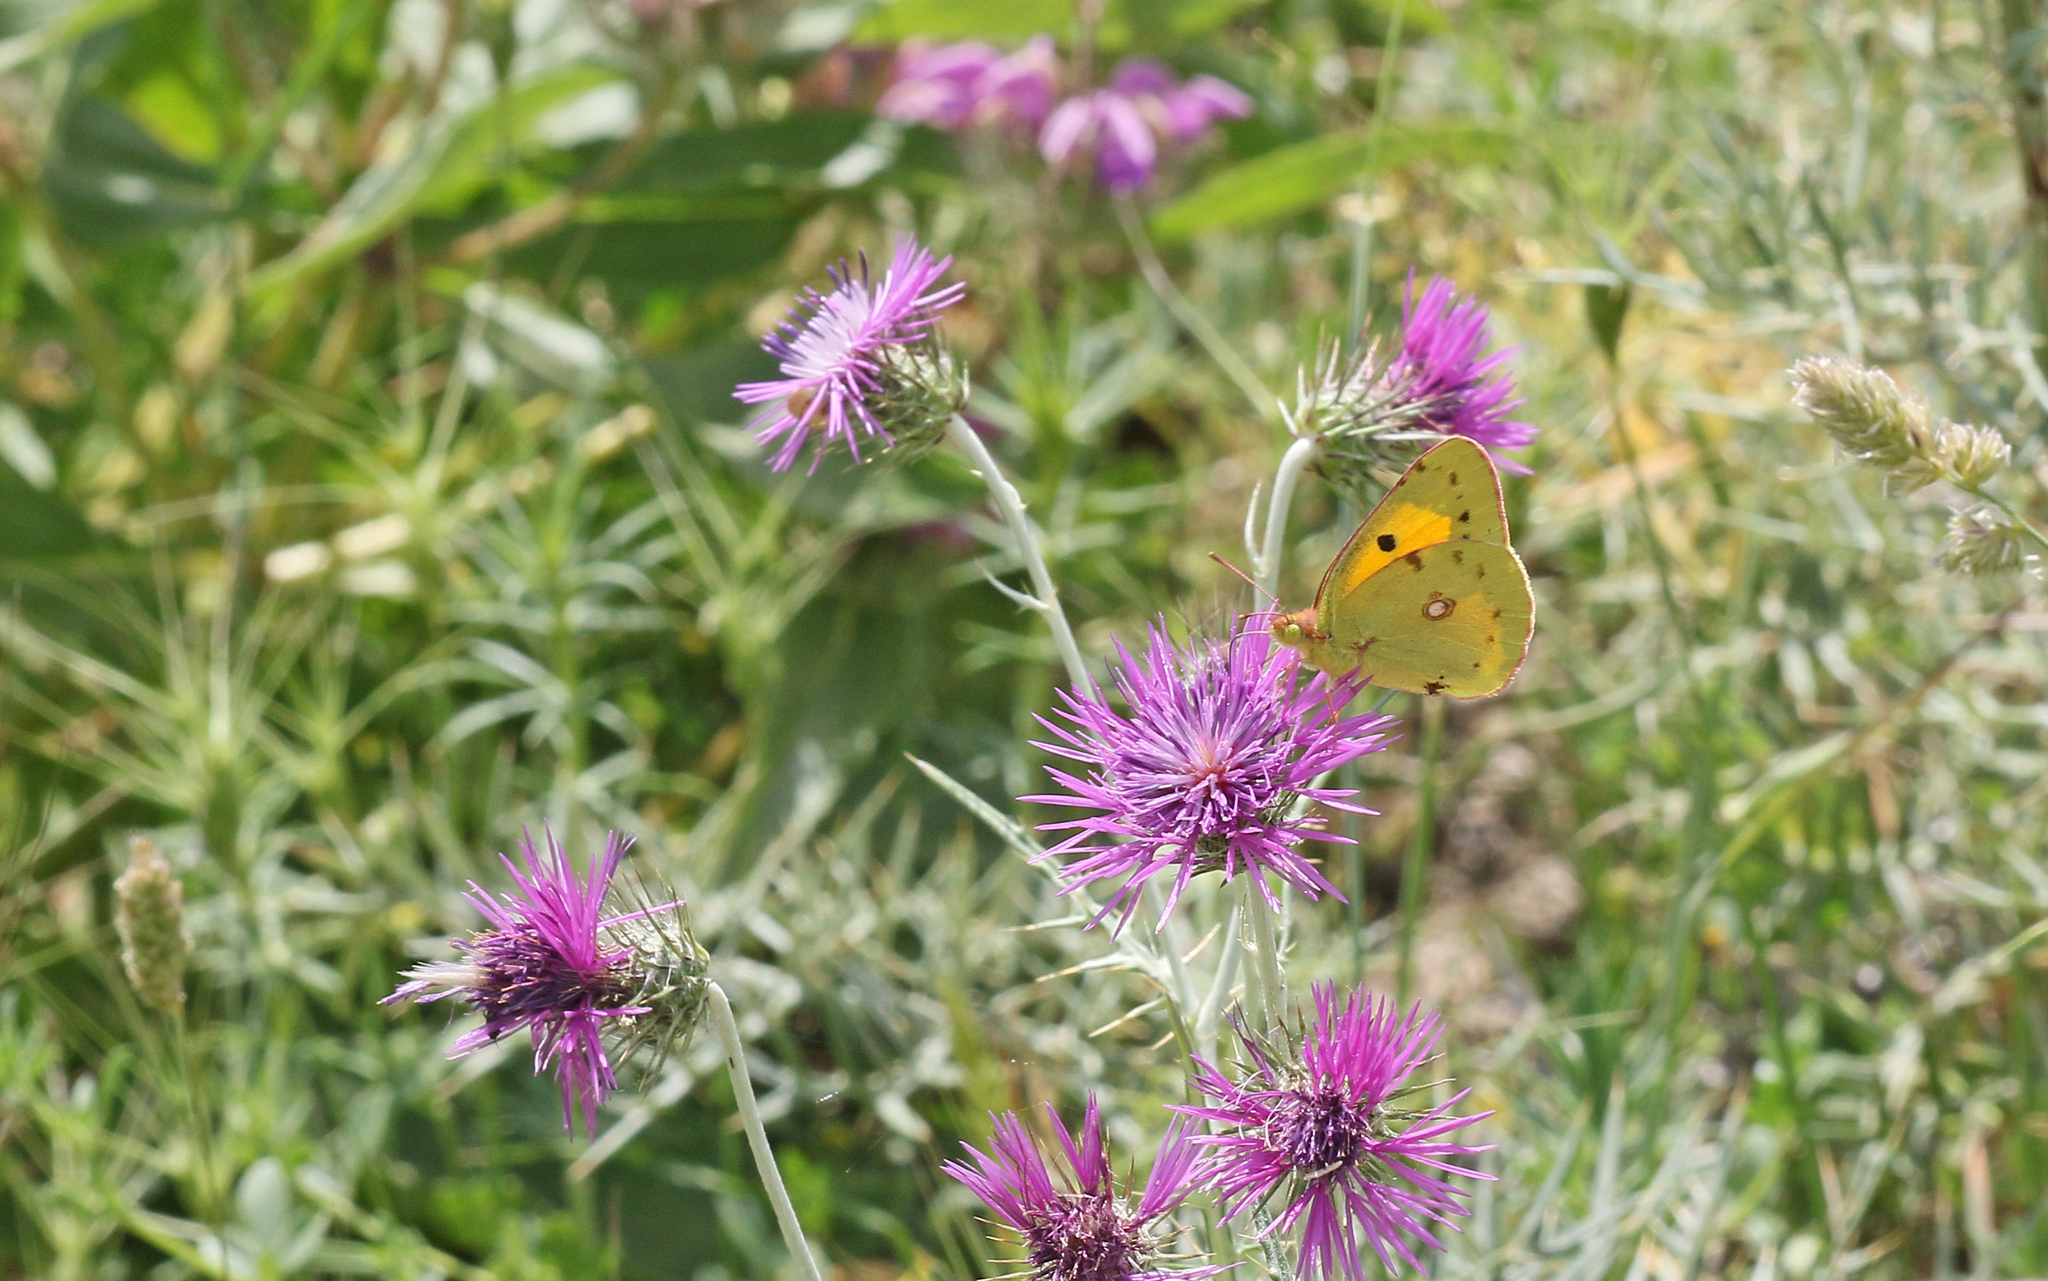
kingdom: Animalia
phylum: Arthropoda
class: Insecta
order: Lepidoptera
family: Pieridae
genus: Colias
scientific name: Colias croceus
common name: Clouded yellow
